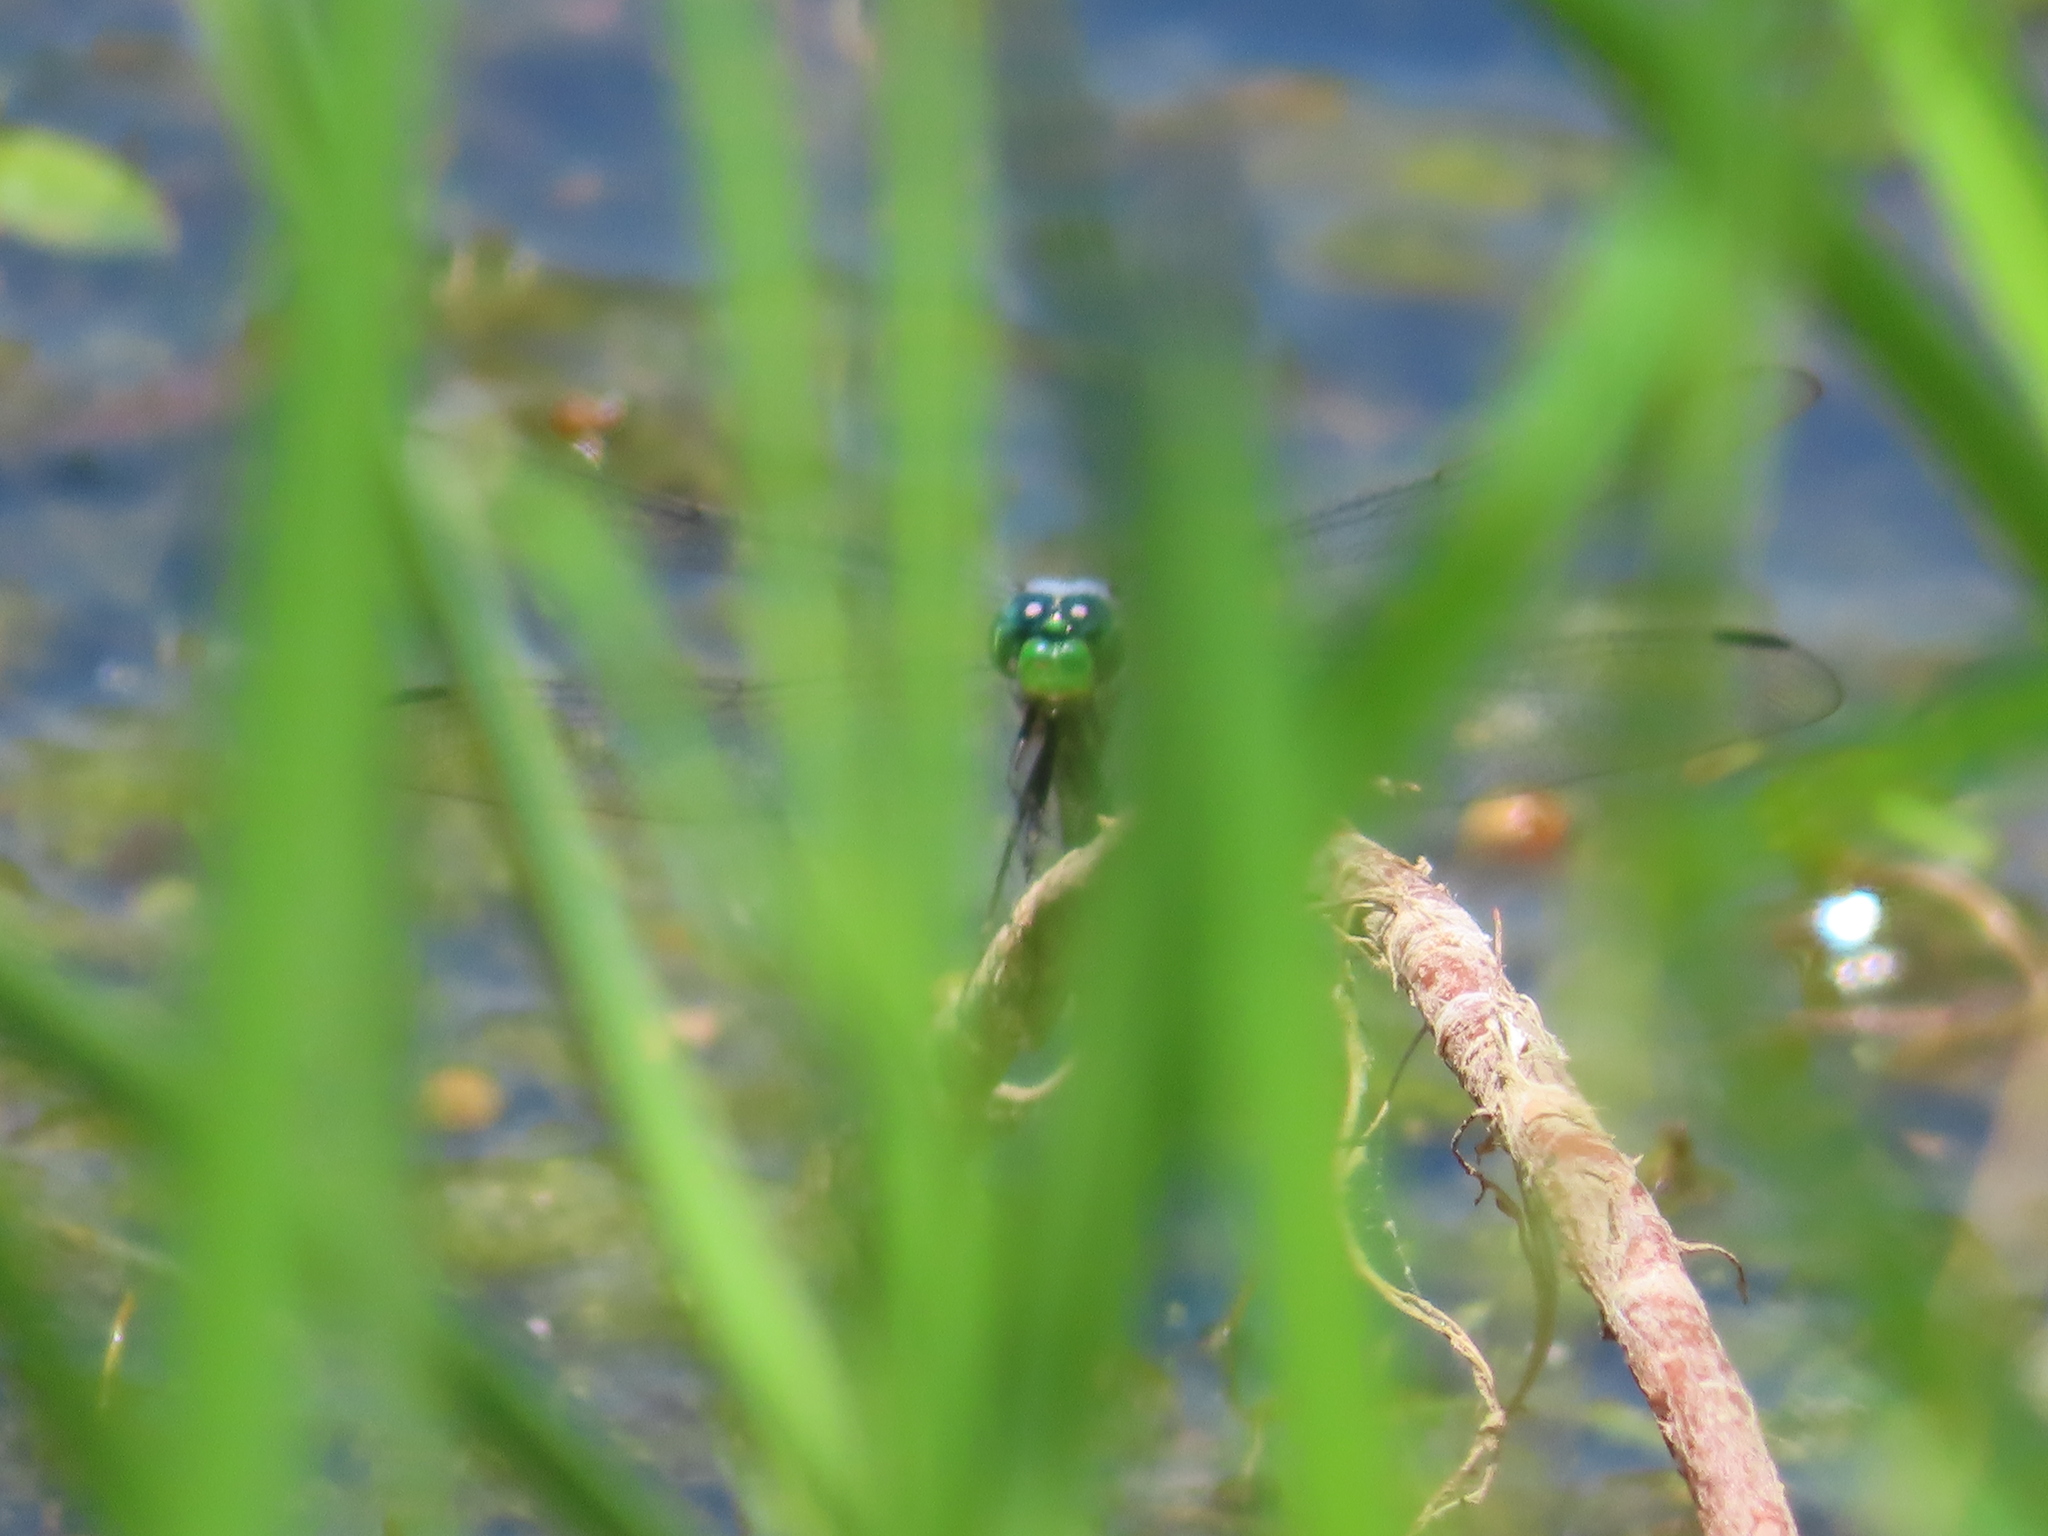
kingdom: Animalia
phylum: Arthropoda
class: Insecta
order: Odonata
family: Libellulidae
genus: Erythemis
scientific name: Erythemis simplicicollis
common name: Eastern pondhawk
